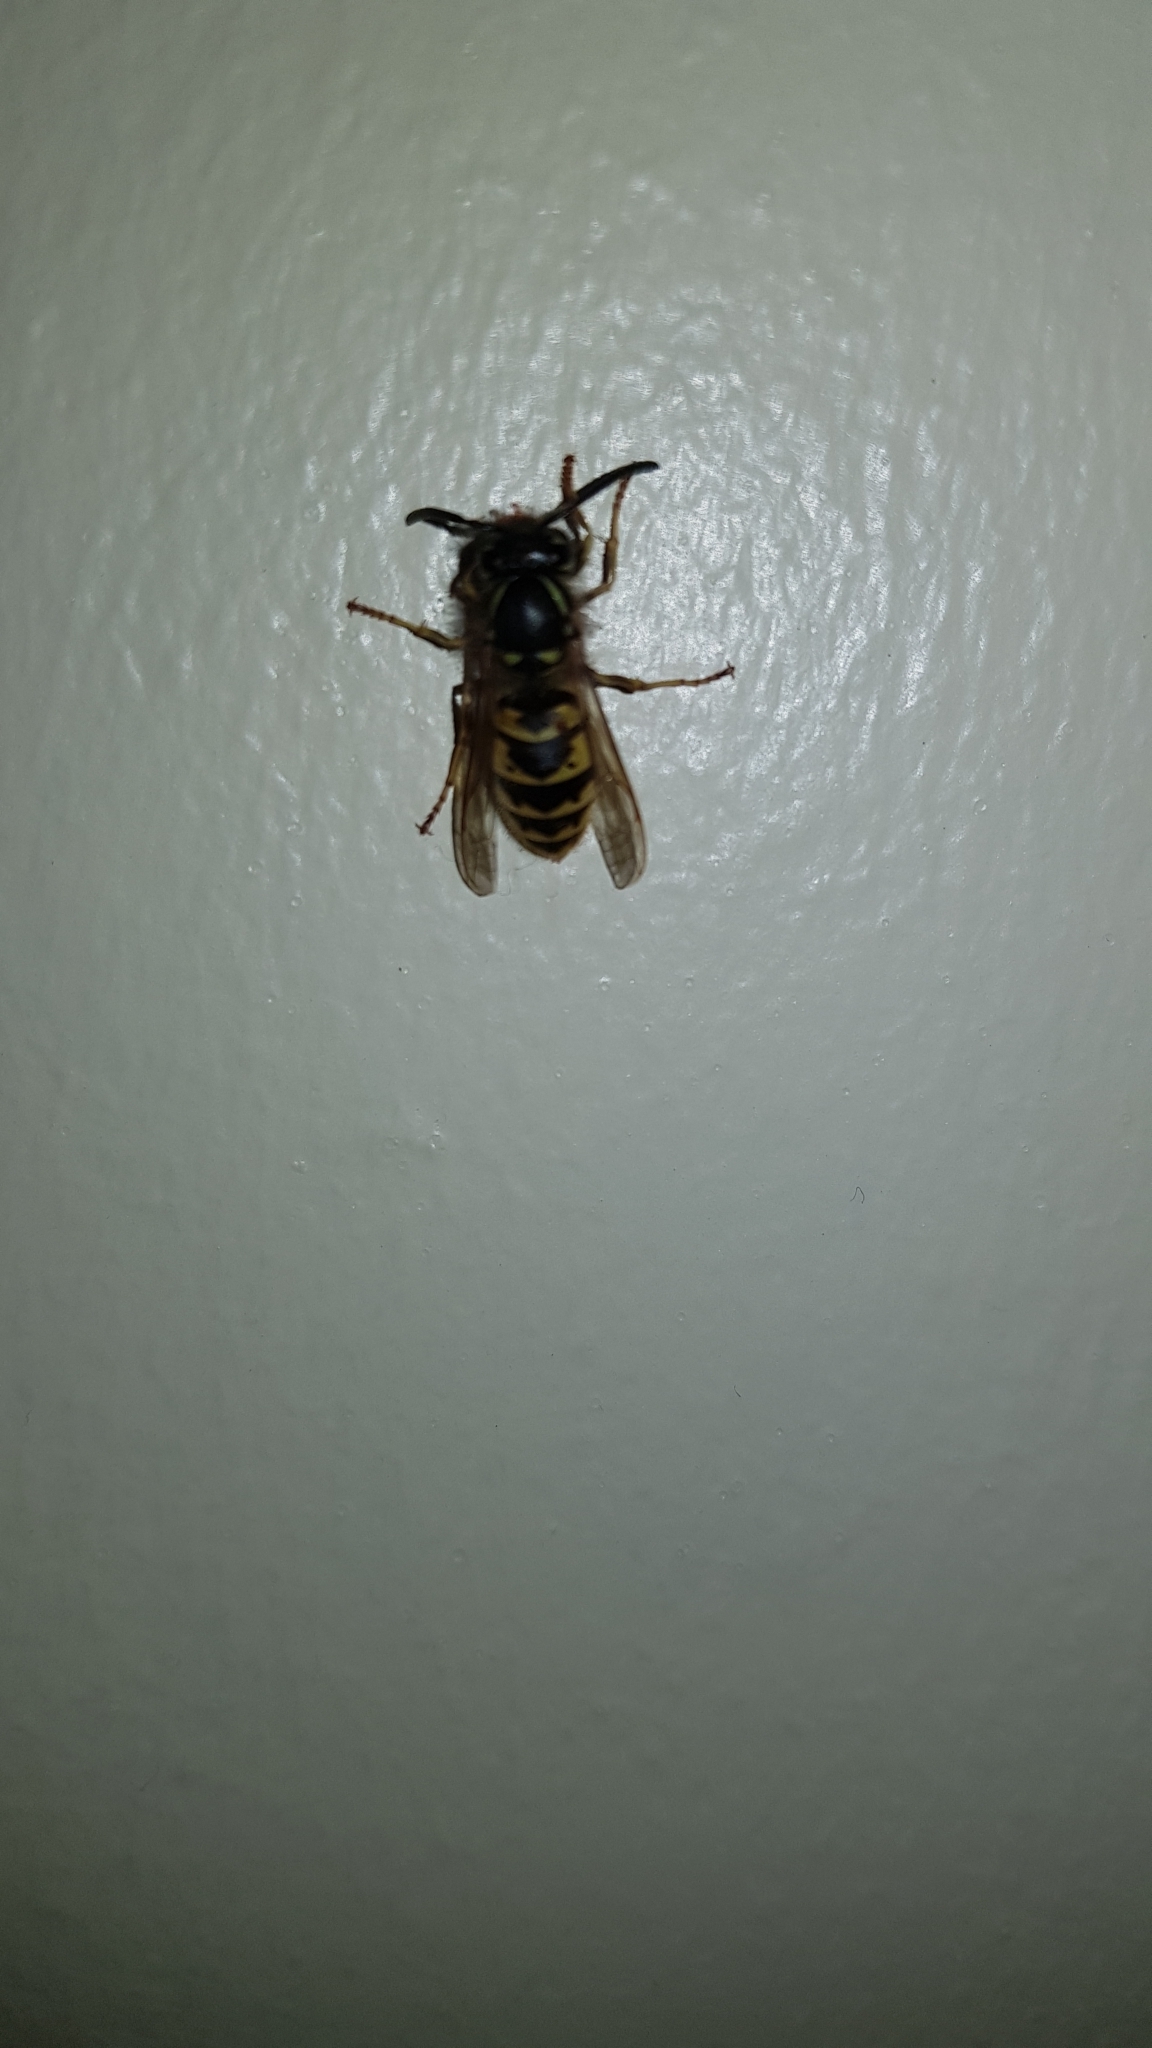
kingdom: Animalia
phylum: Arthropoda
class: Insecta
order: Hymenoptera
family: Vespidae
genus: Vespula
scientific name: Vespula vulgaris
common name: Common wasp
